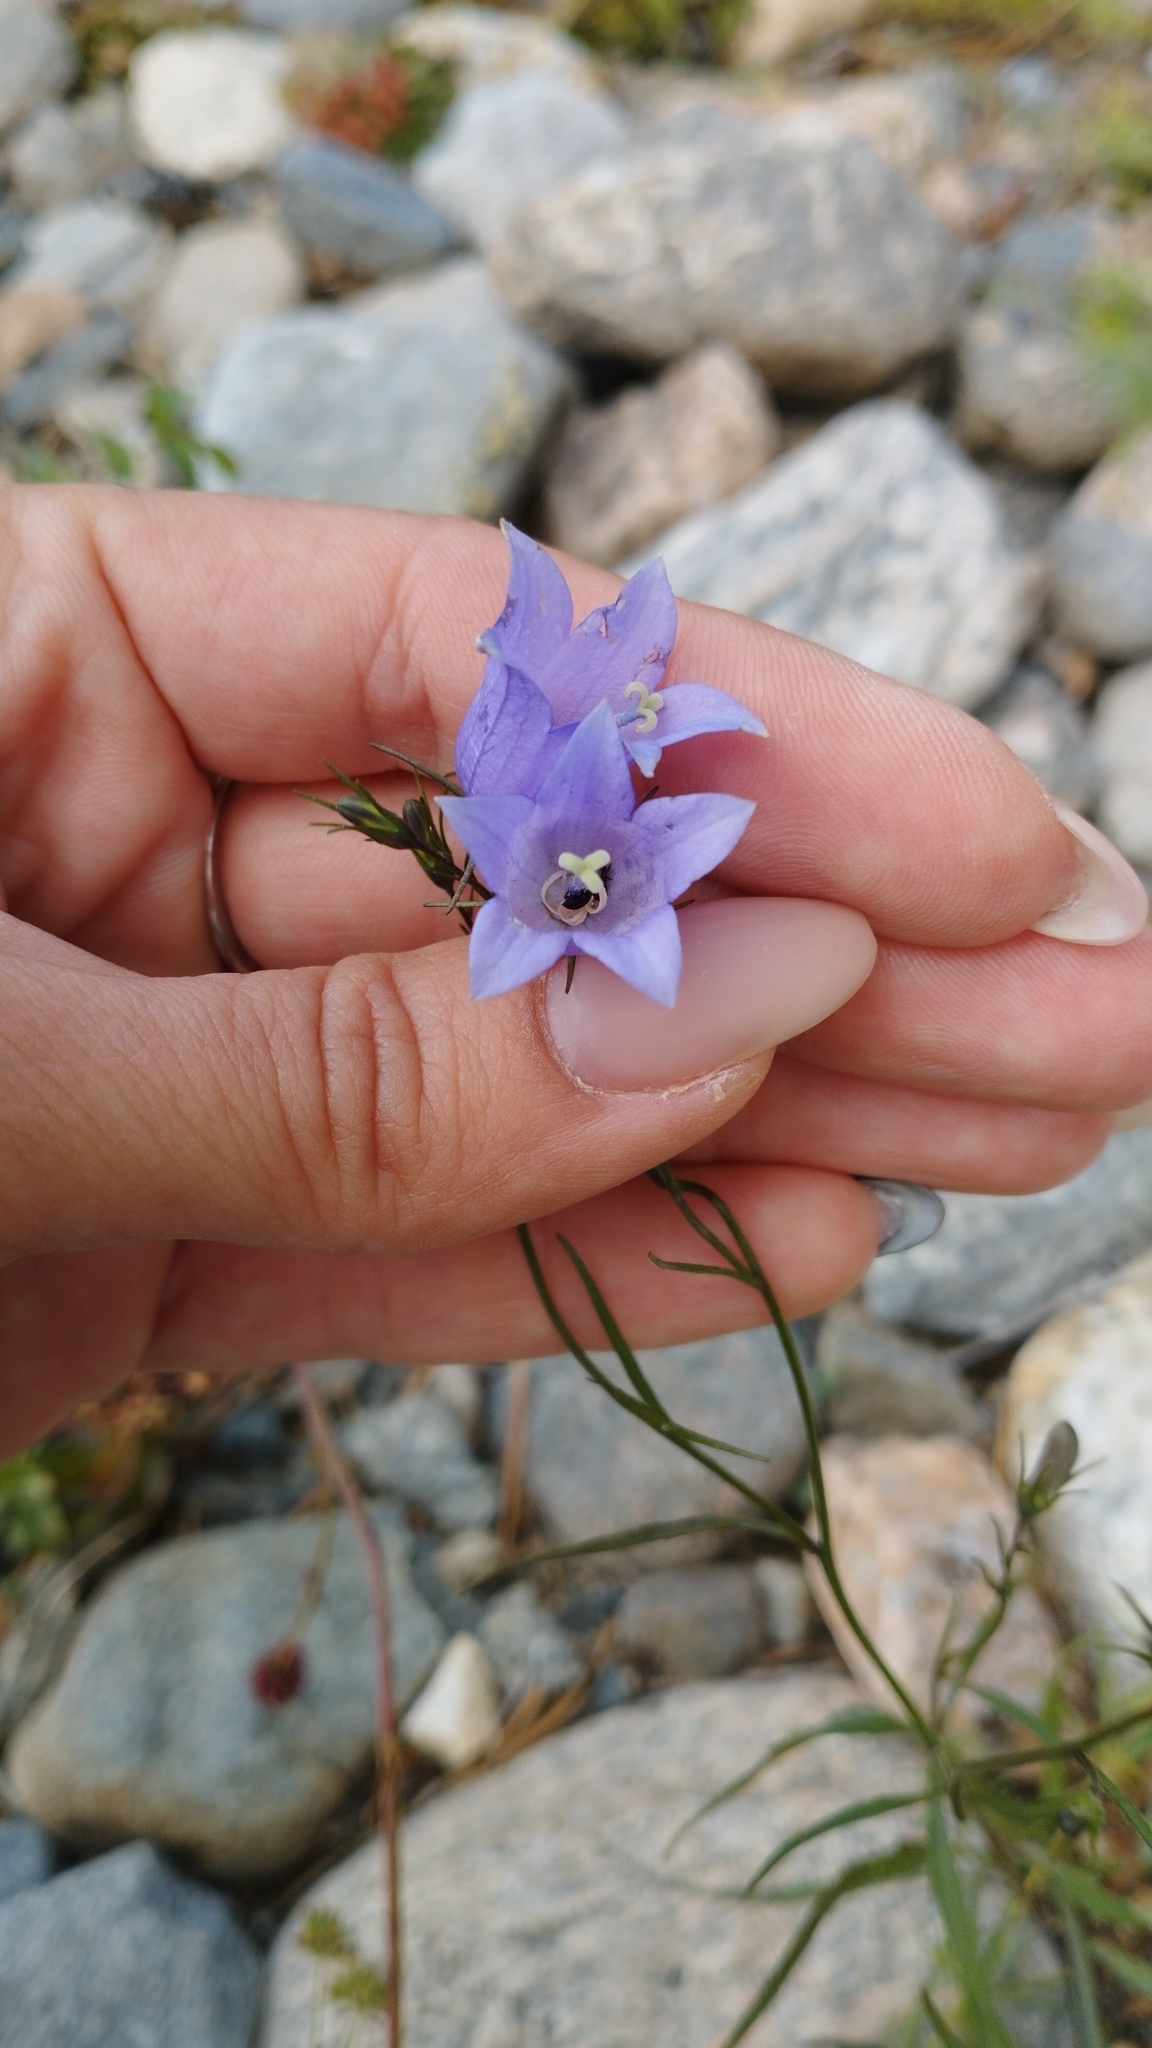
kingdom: Plantae
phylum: Tracheophyta
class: Magnoliopsida
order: Asterales
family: Campanulaceae
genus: Campanula
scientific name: Campanula rotundifolia
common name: Harebell
